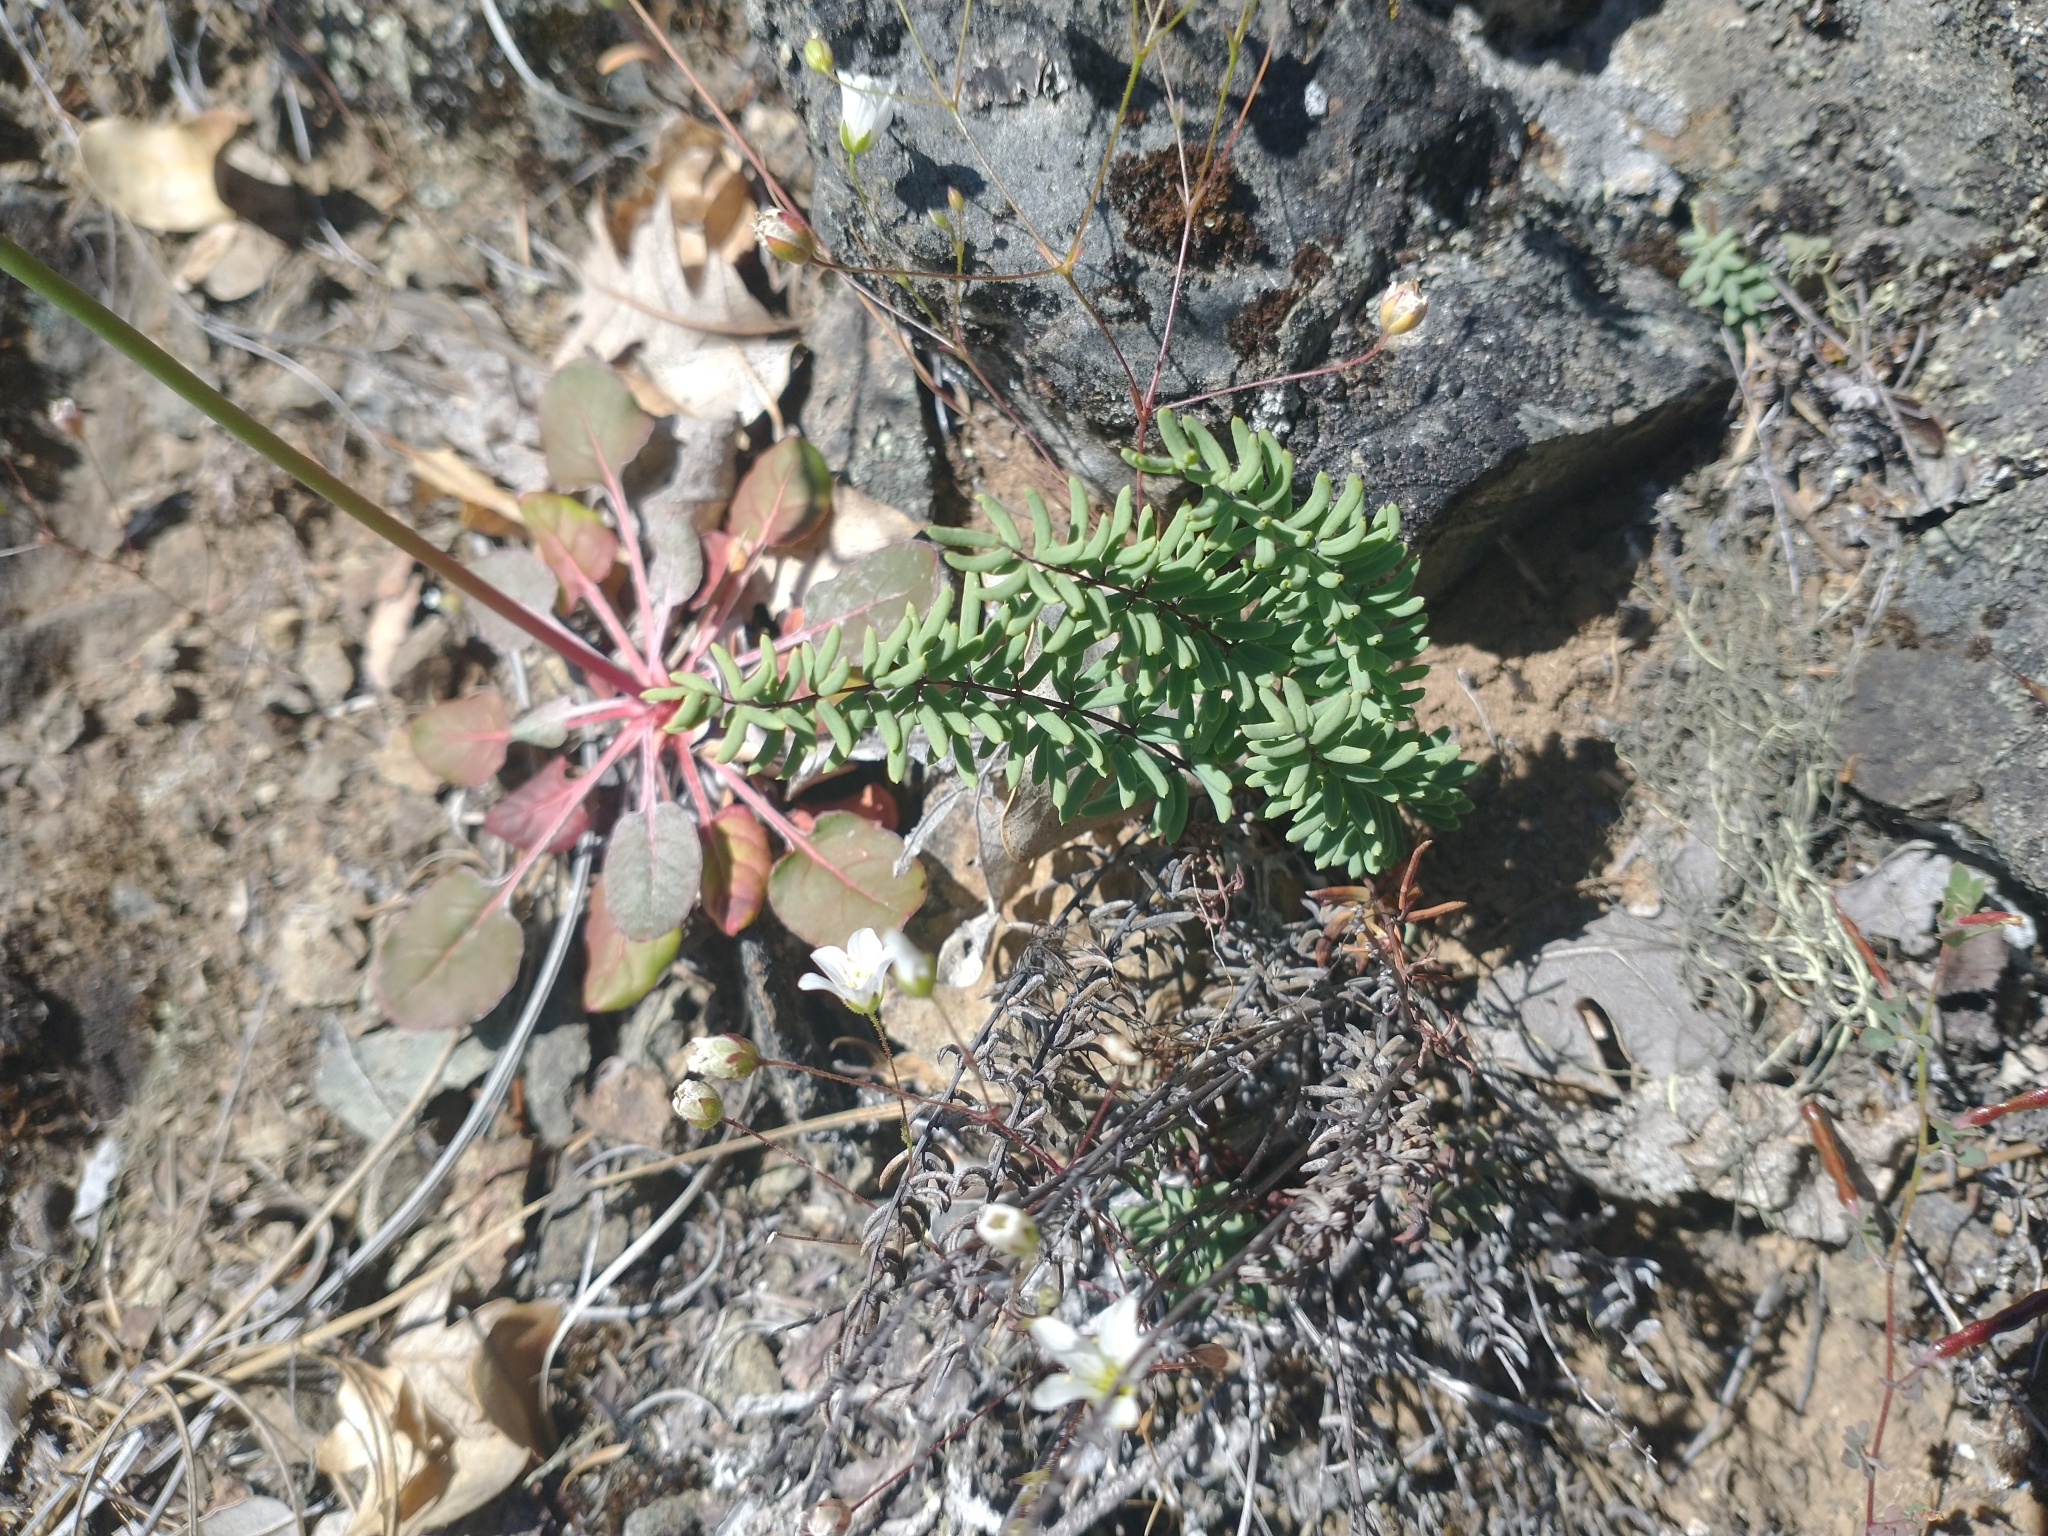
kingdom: Plantae
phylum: Tracheophyta
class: Polypodiopsida
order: Polypodiales
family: Pteridaceae
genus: Pellaea
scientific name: Pellaea brachyptera
